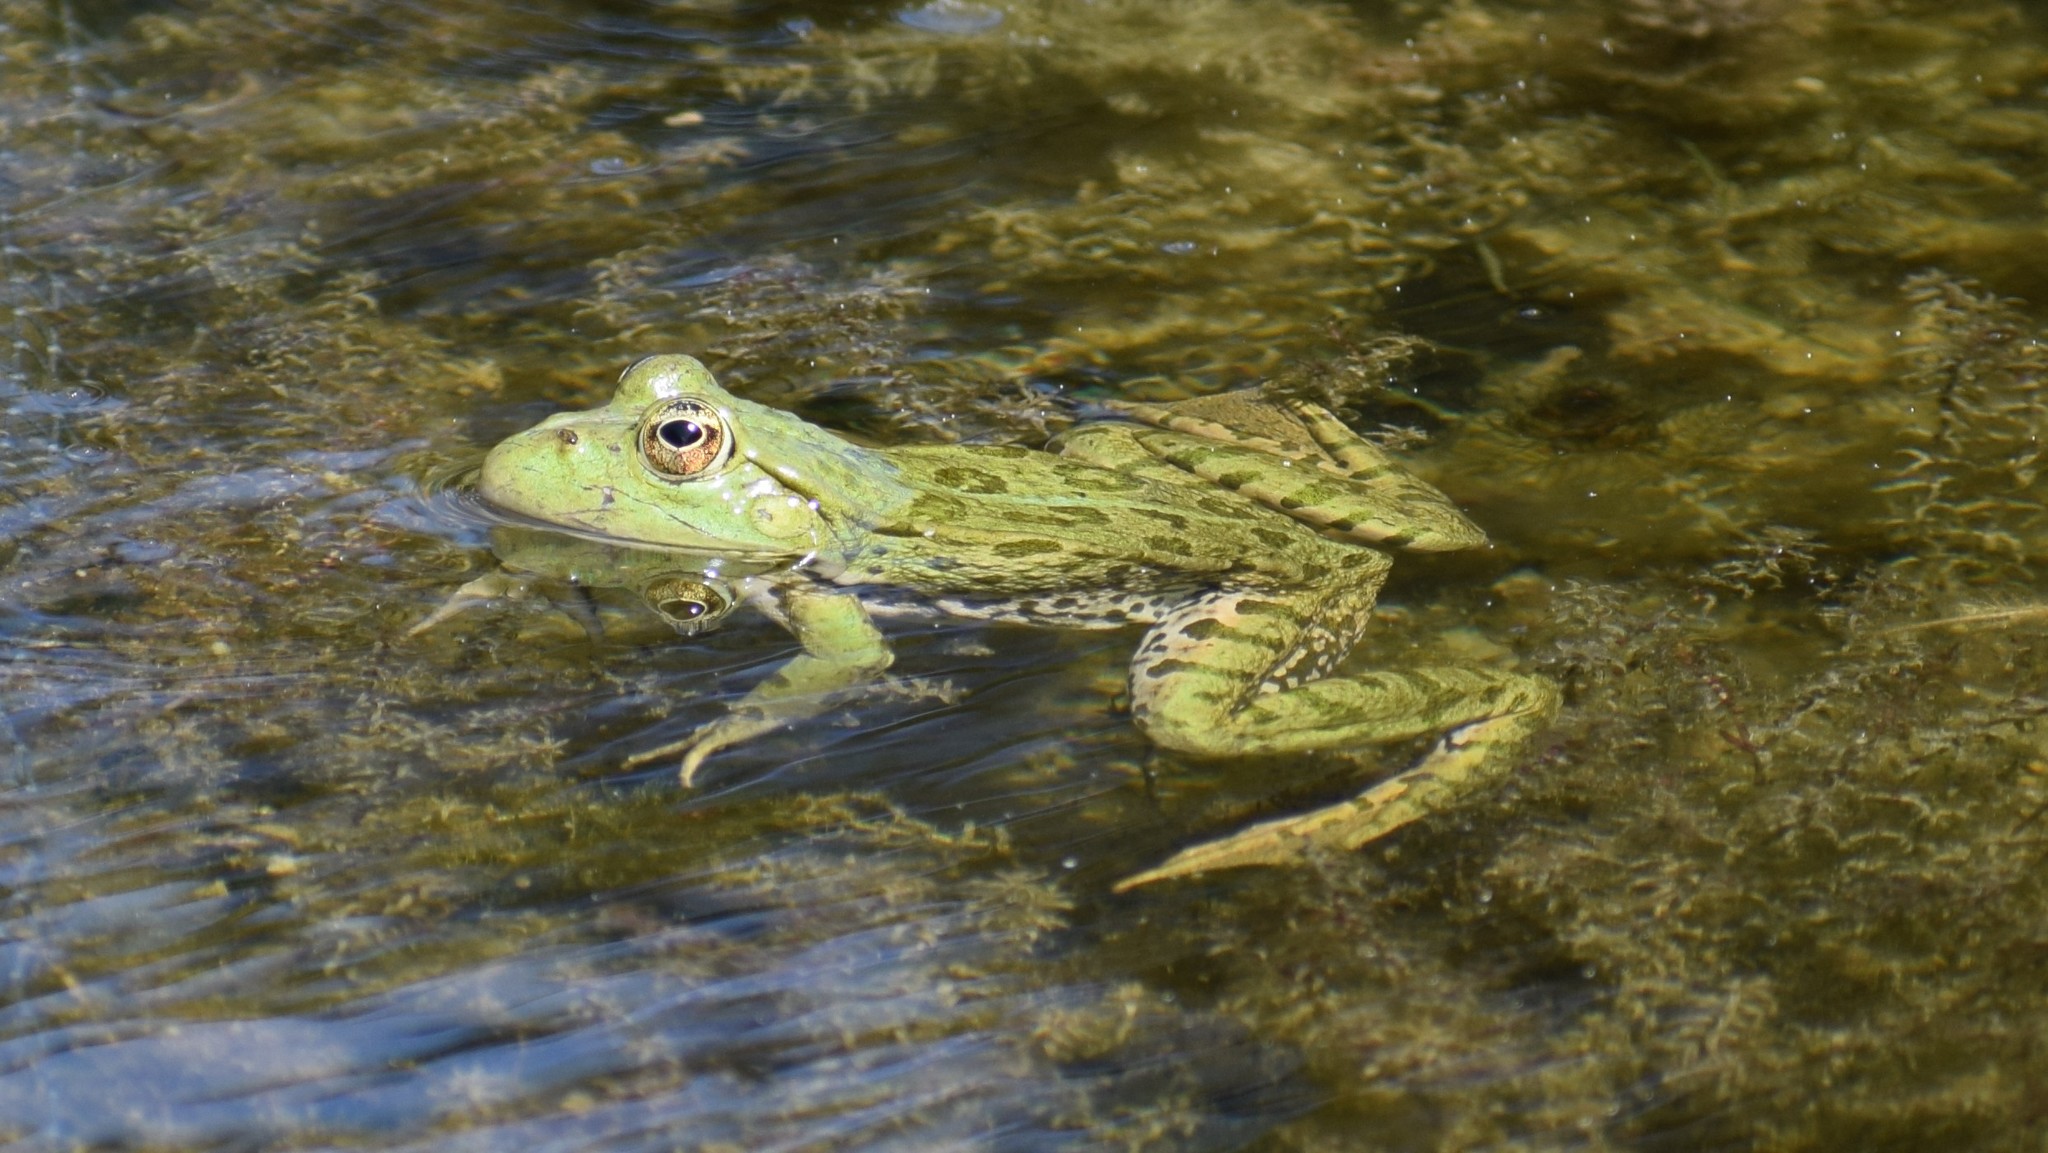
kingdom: Animalia
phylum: Chordata
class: Amphibia
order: Anura
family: Ranidae
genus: Pelophylax
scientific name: Pelophylax
